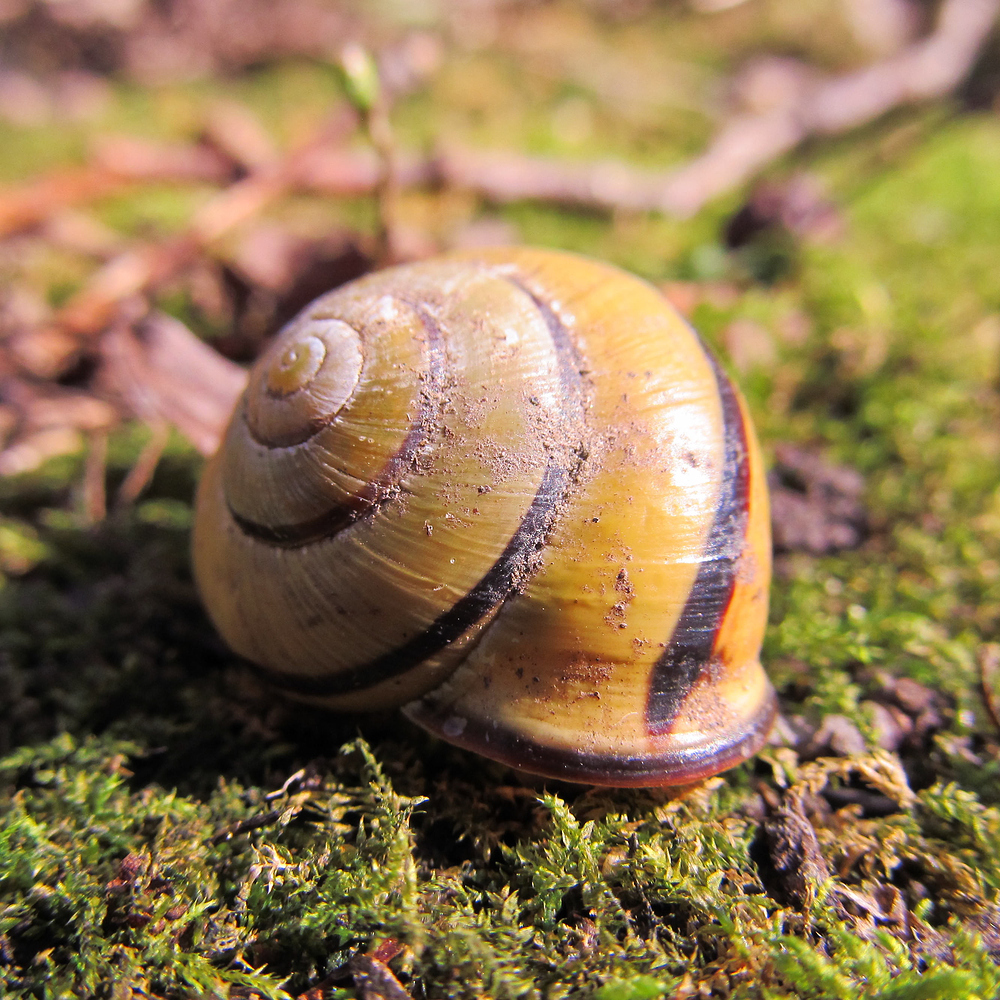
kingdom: Animalia
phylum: Mollusca
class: Gastropoda
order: Stylommatophora
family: Helicidae
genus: Cepaea
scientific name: Cepaea nemoralis
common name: Grovesnail
